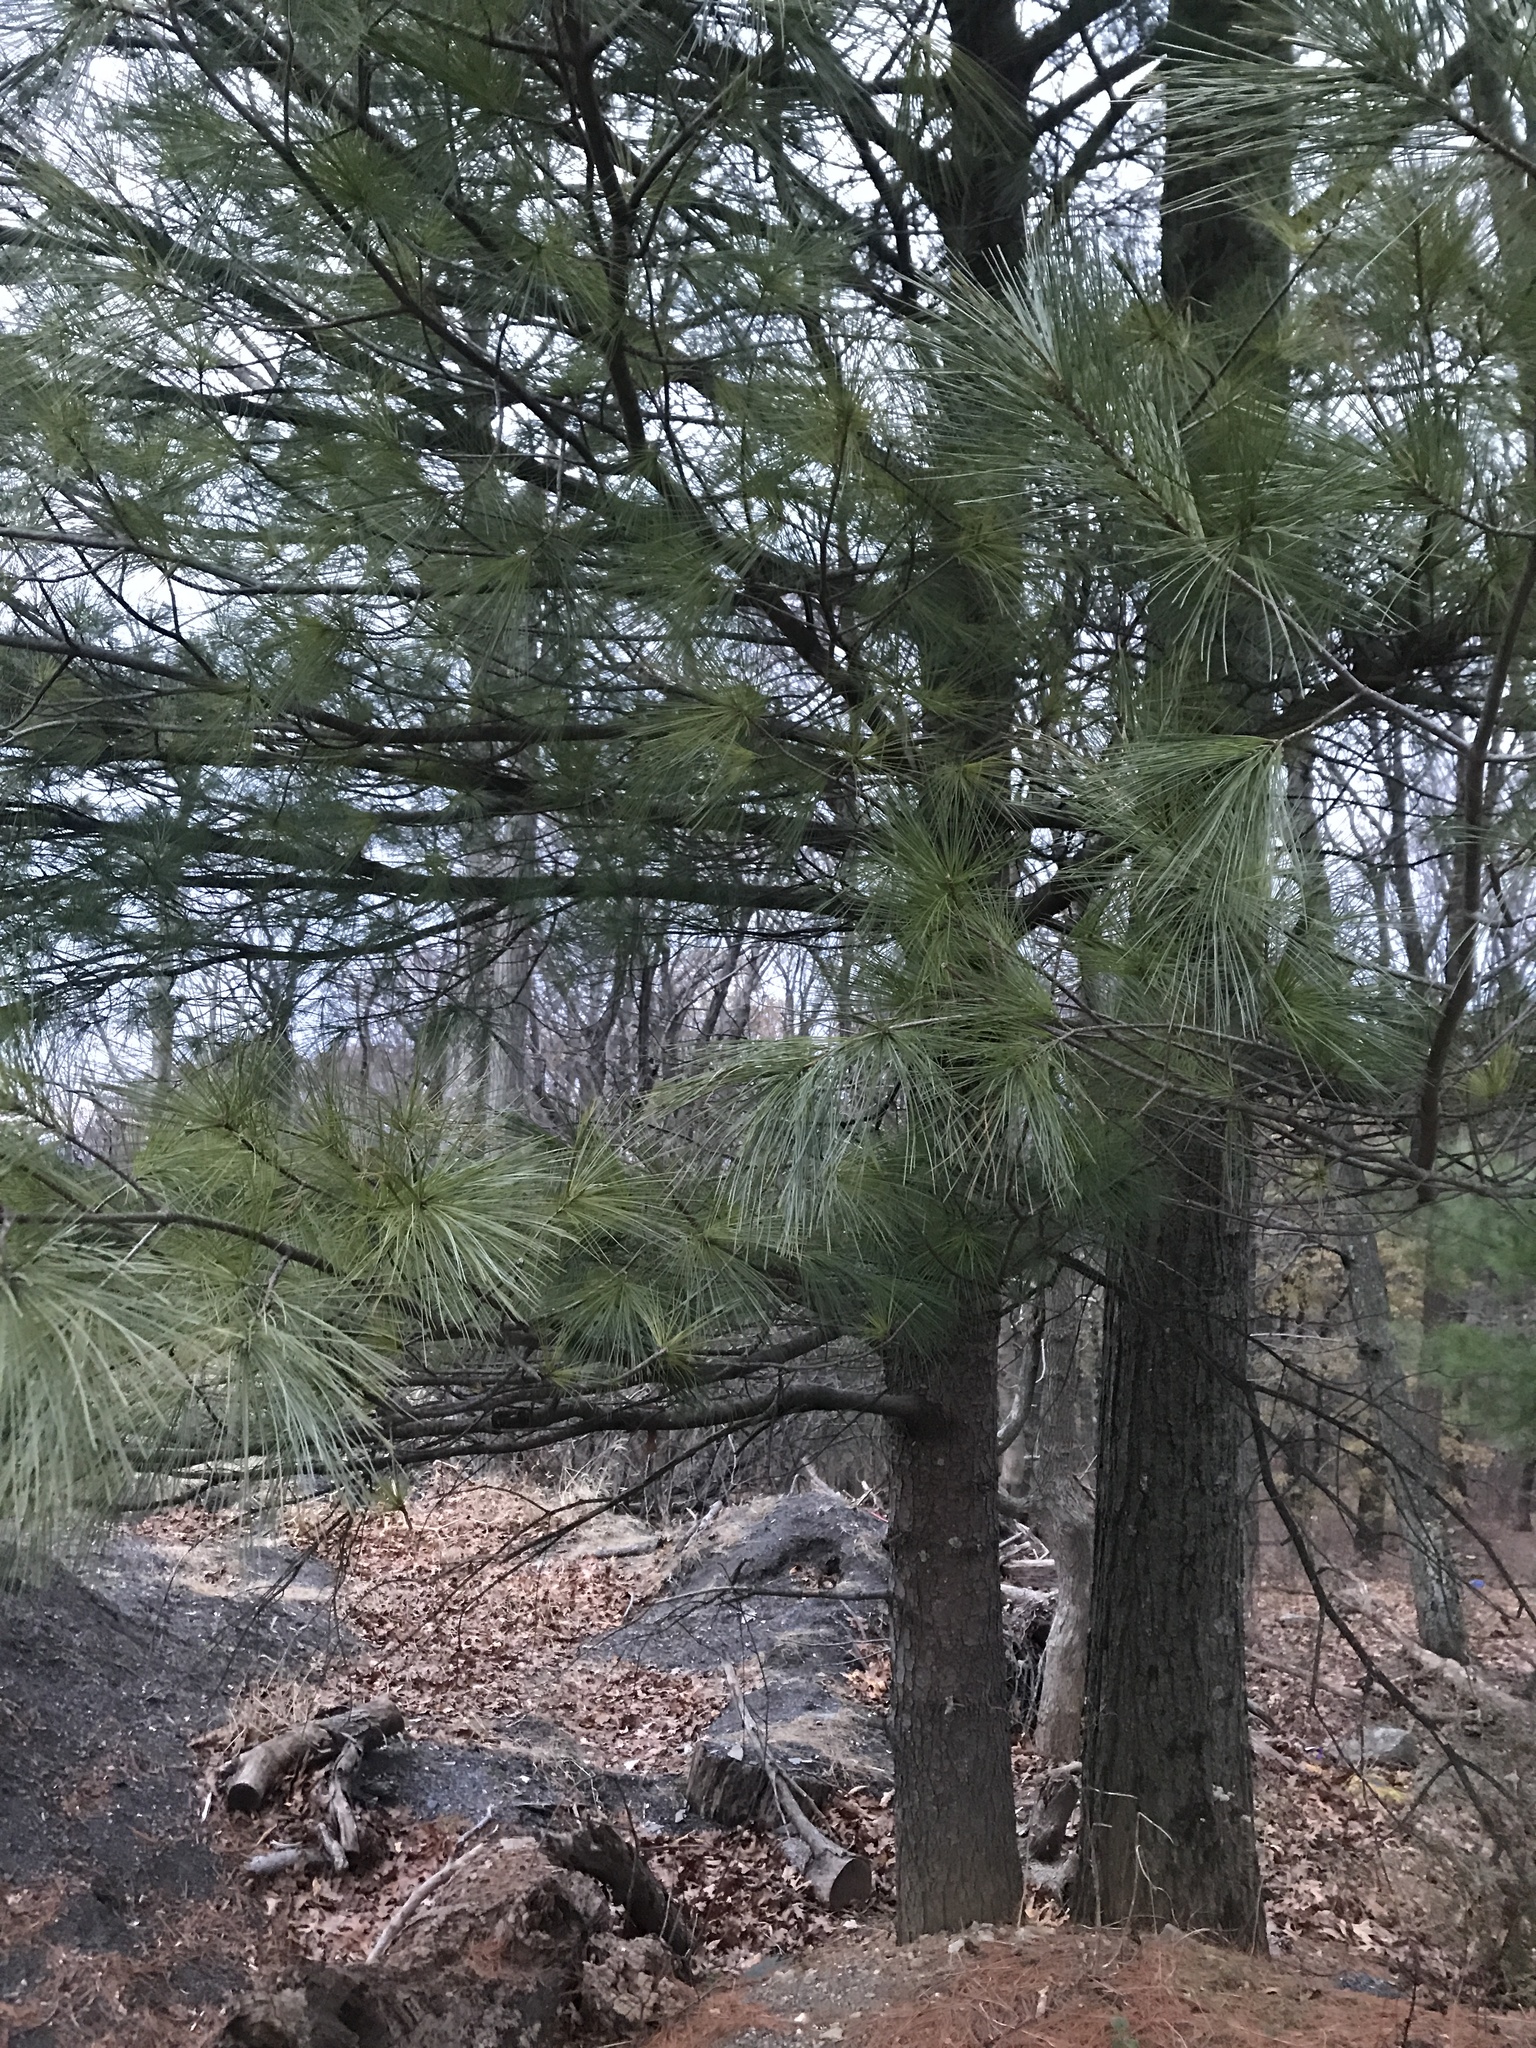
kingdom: Plantae
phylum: Tracheophyta
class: Pinopsida
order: Pinales
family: Pinaceae
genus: Pinus
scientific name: Pinus strobus
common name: Weymouth pine
